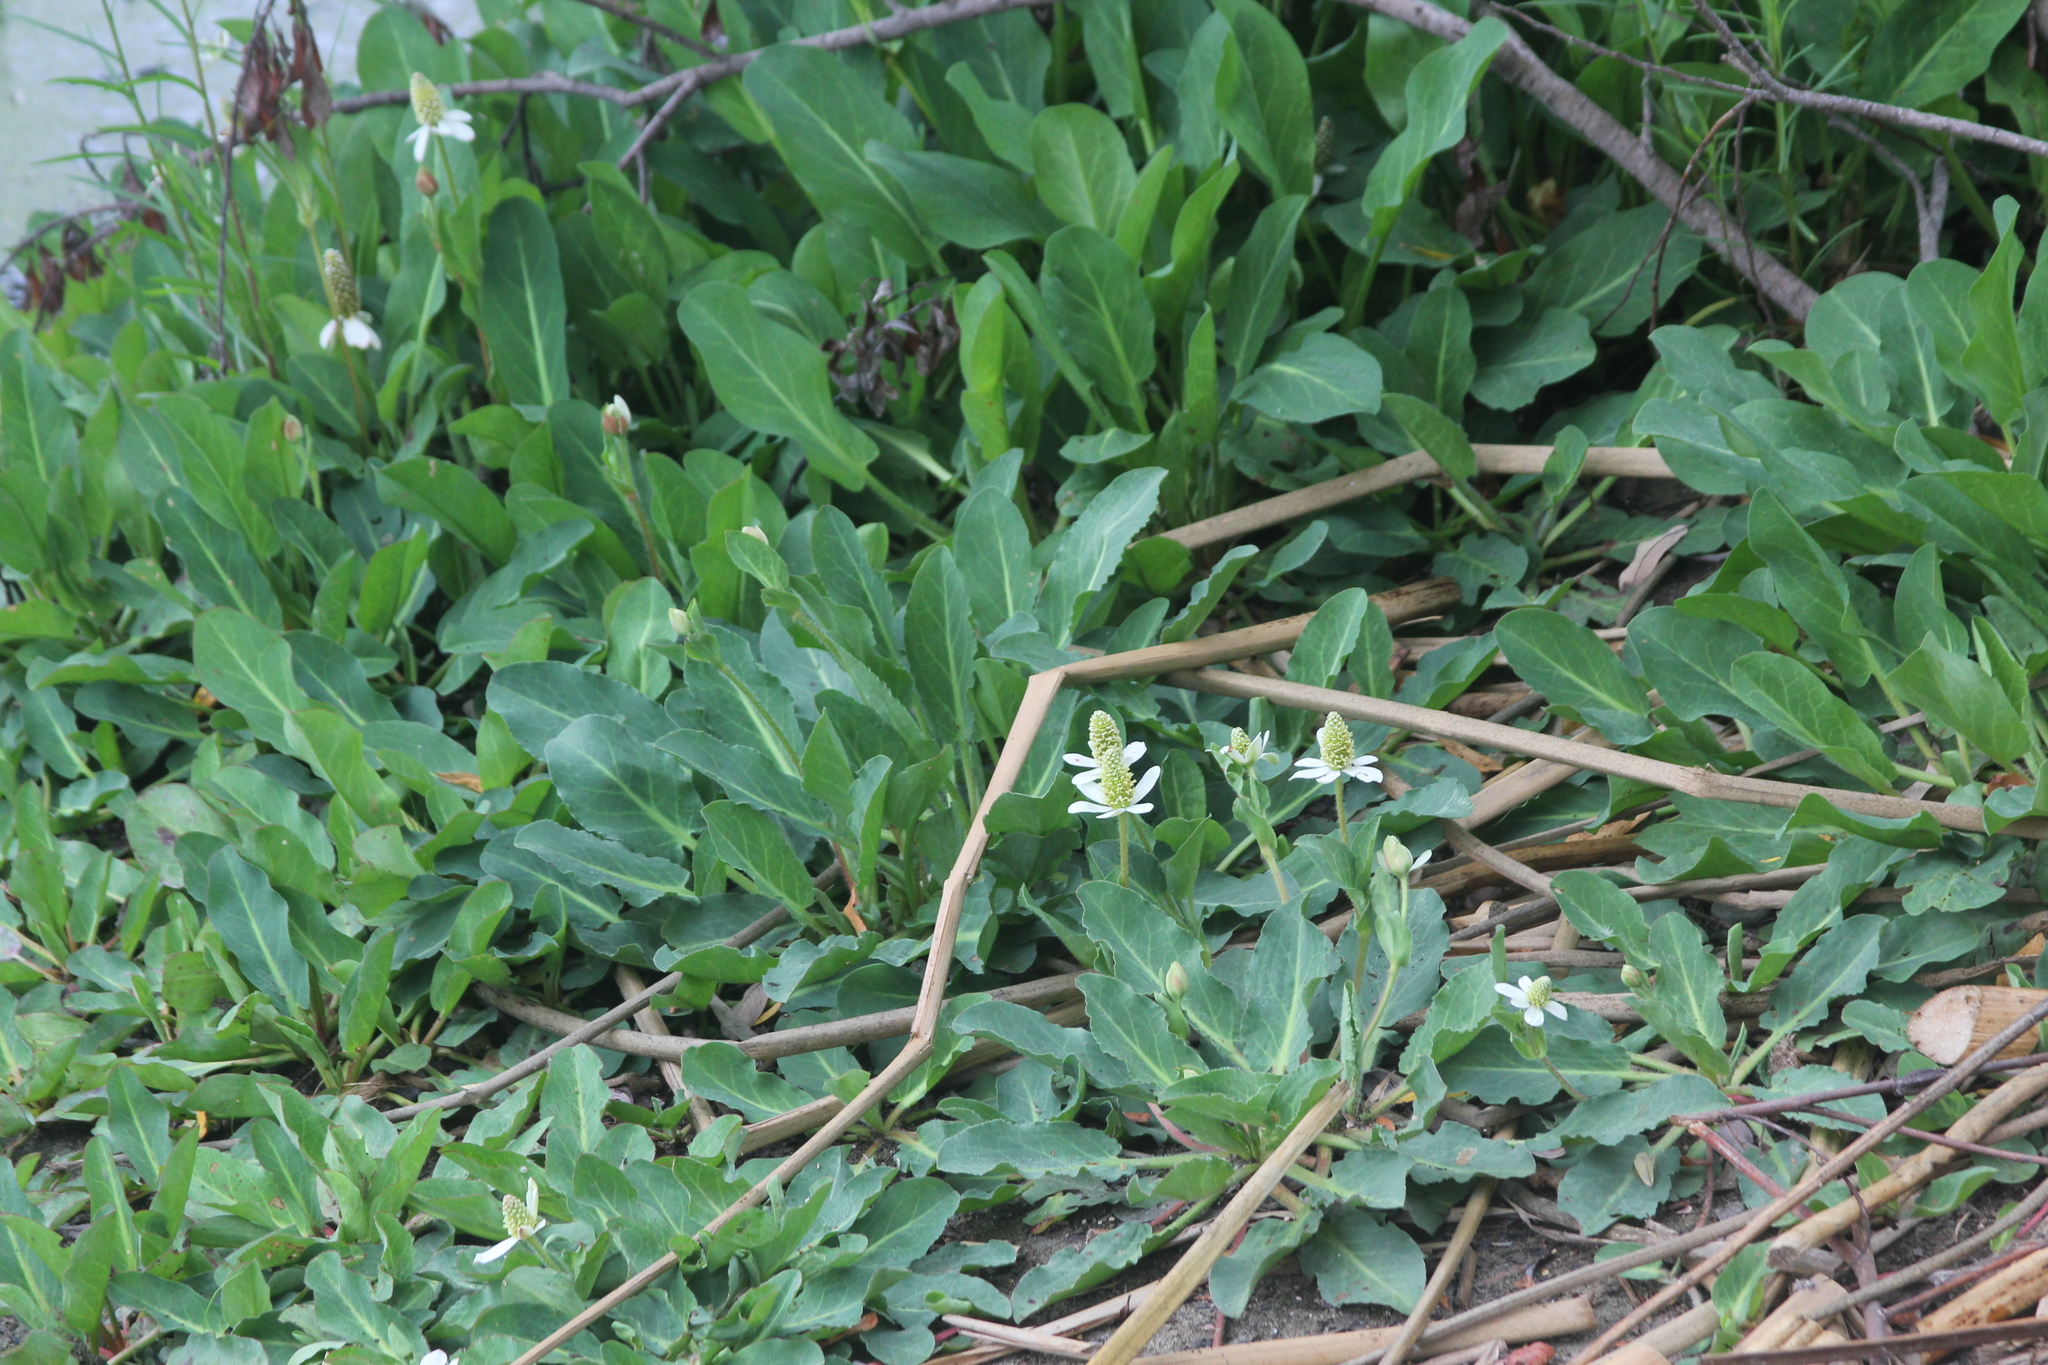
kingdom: Plantae
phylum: Tracheophyta
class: Magnoliopsida
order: Piperales
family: Saururaceae
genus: Anemopsis
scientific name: Anemopsis californica
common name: Apache-beads
